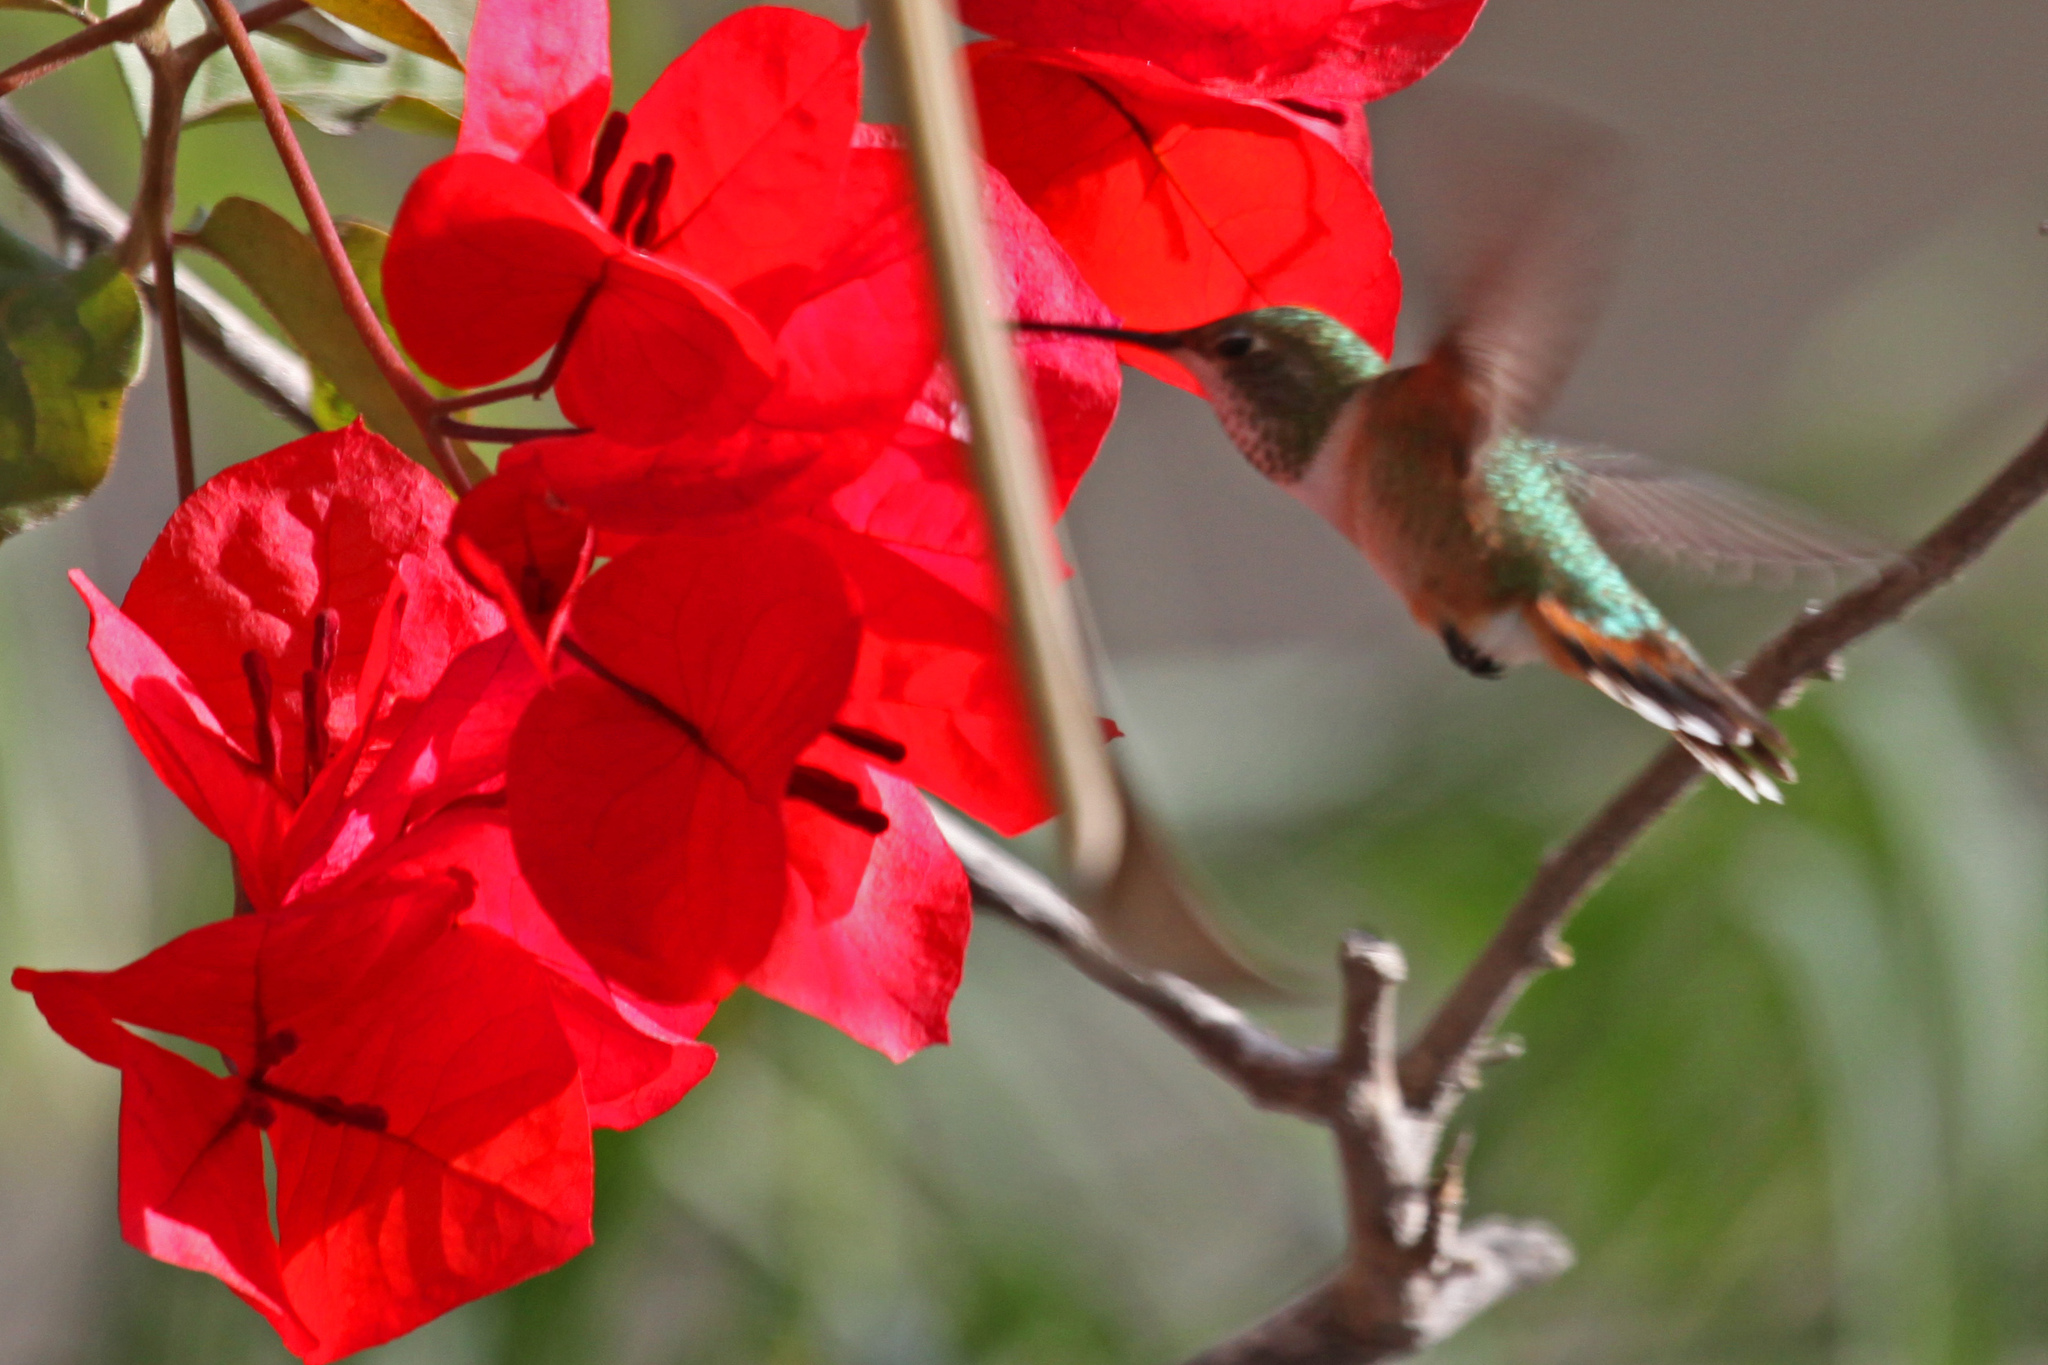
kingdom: Animalia
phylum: Chordata
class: Aves
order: Apodiformes
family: Trochilidae
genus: Selasphorus
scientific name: Selasphorus sasin
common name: Allen's hummingbird
